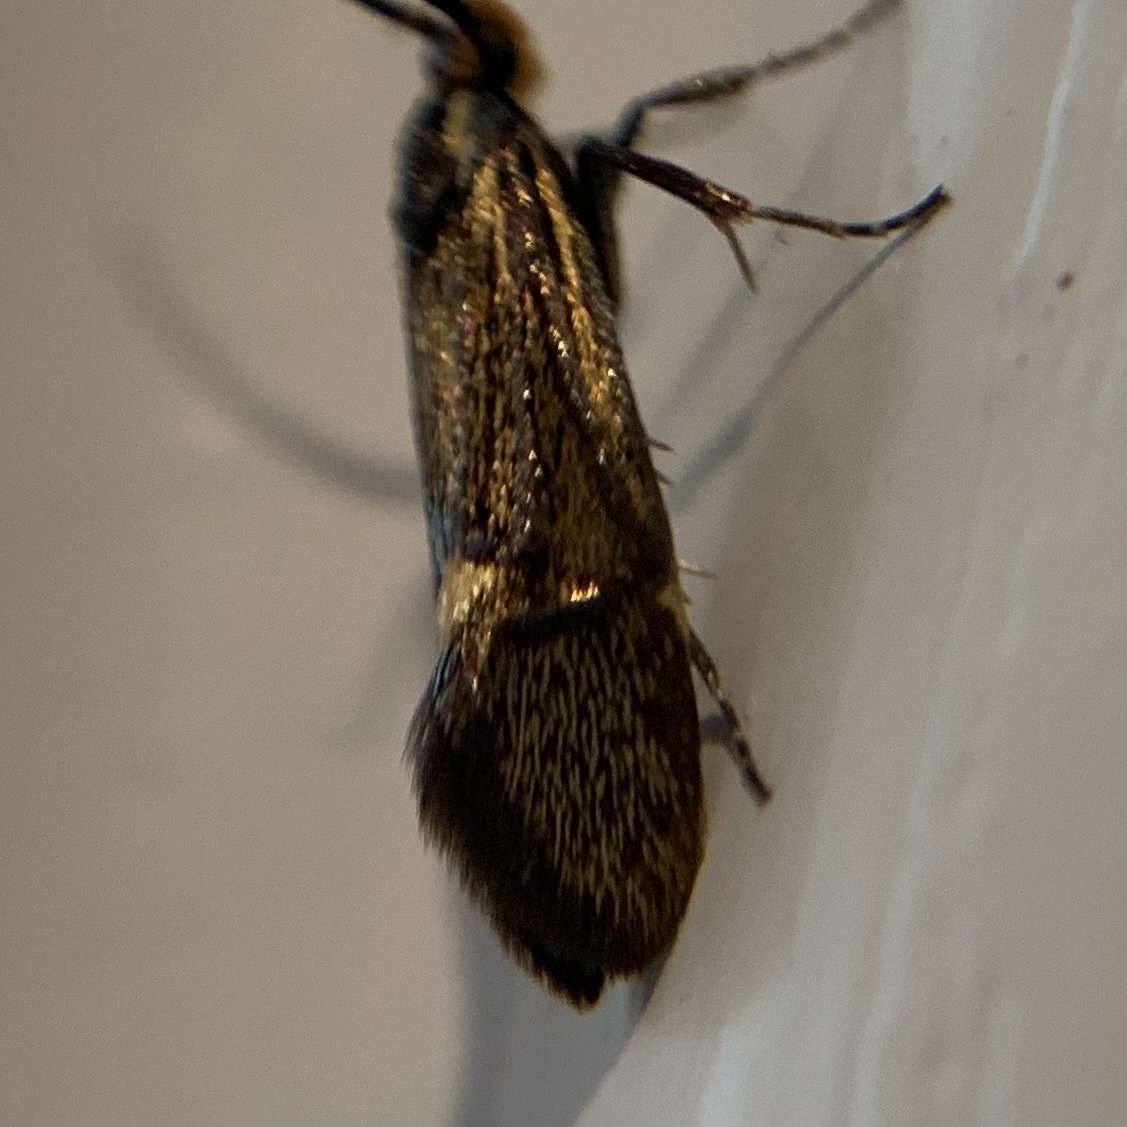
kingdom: Animalia
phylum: Arthropoda
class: Insecta
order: Lepidoptera
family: Oecophoridae
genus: Dafa
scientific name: Dafa Esperia sulphurella
